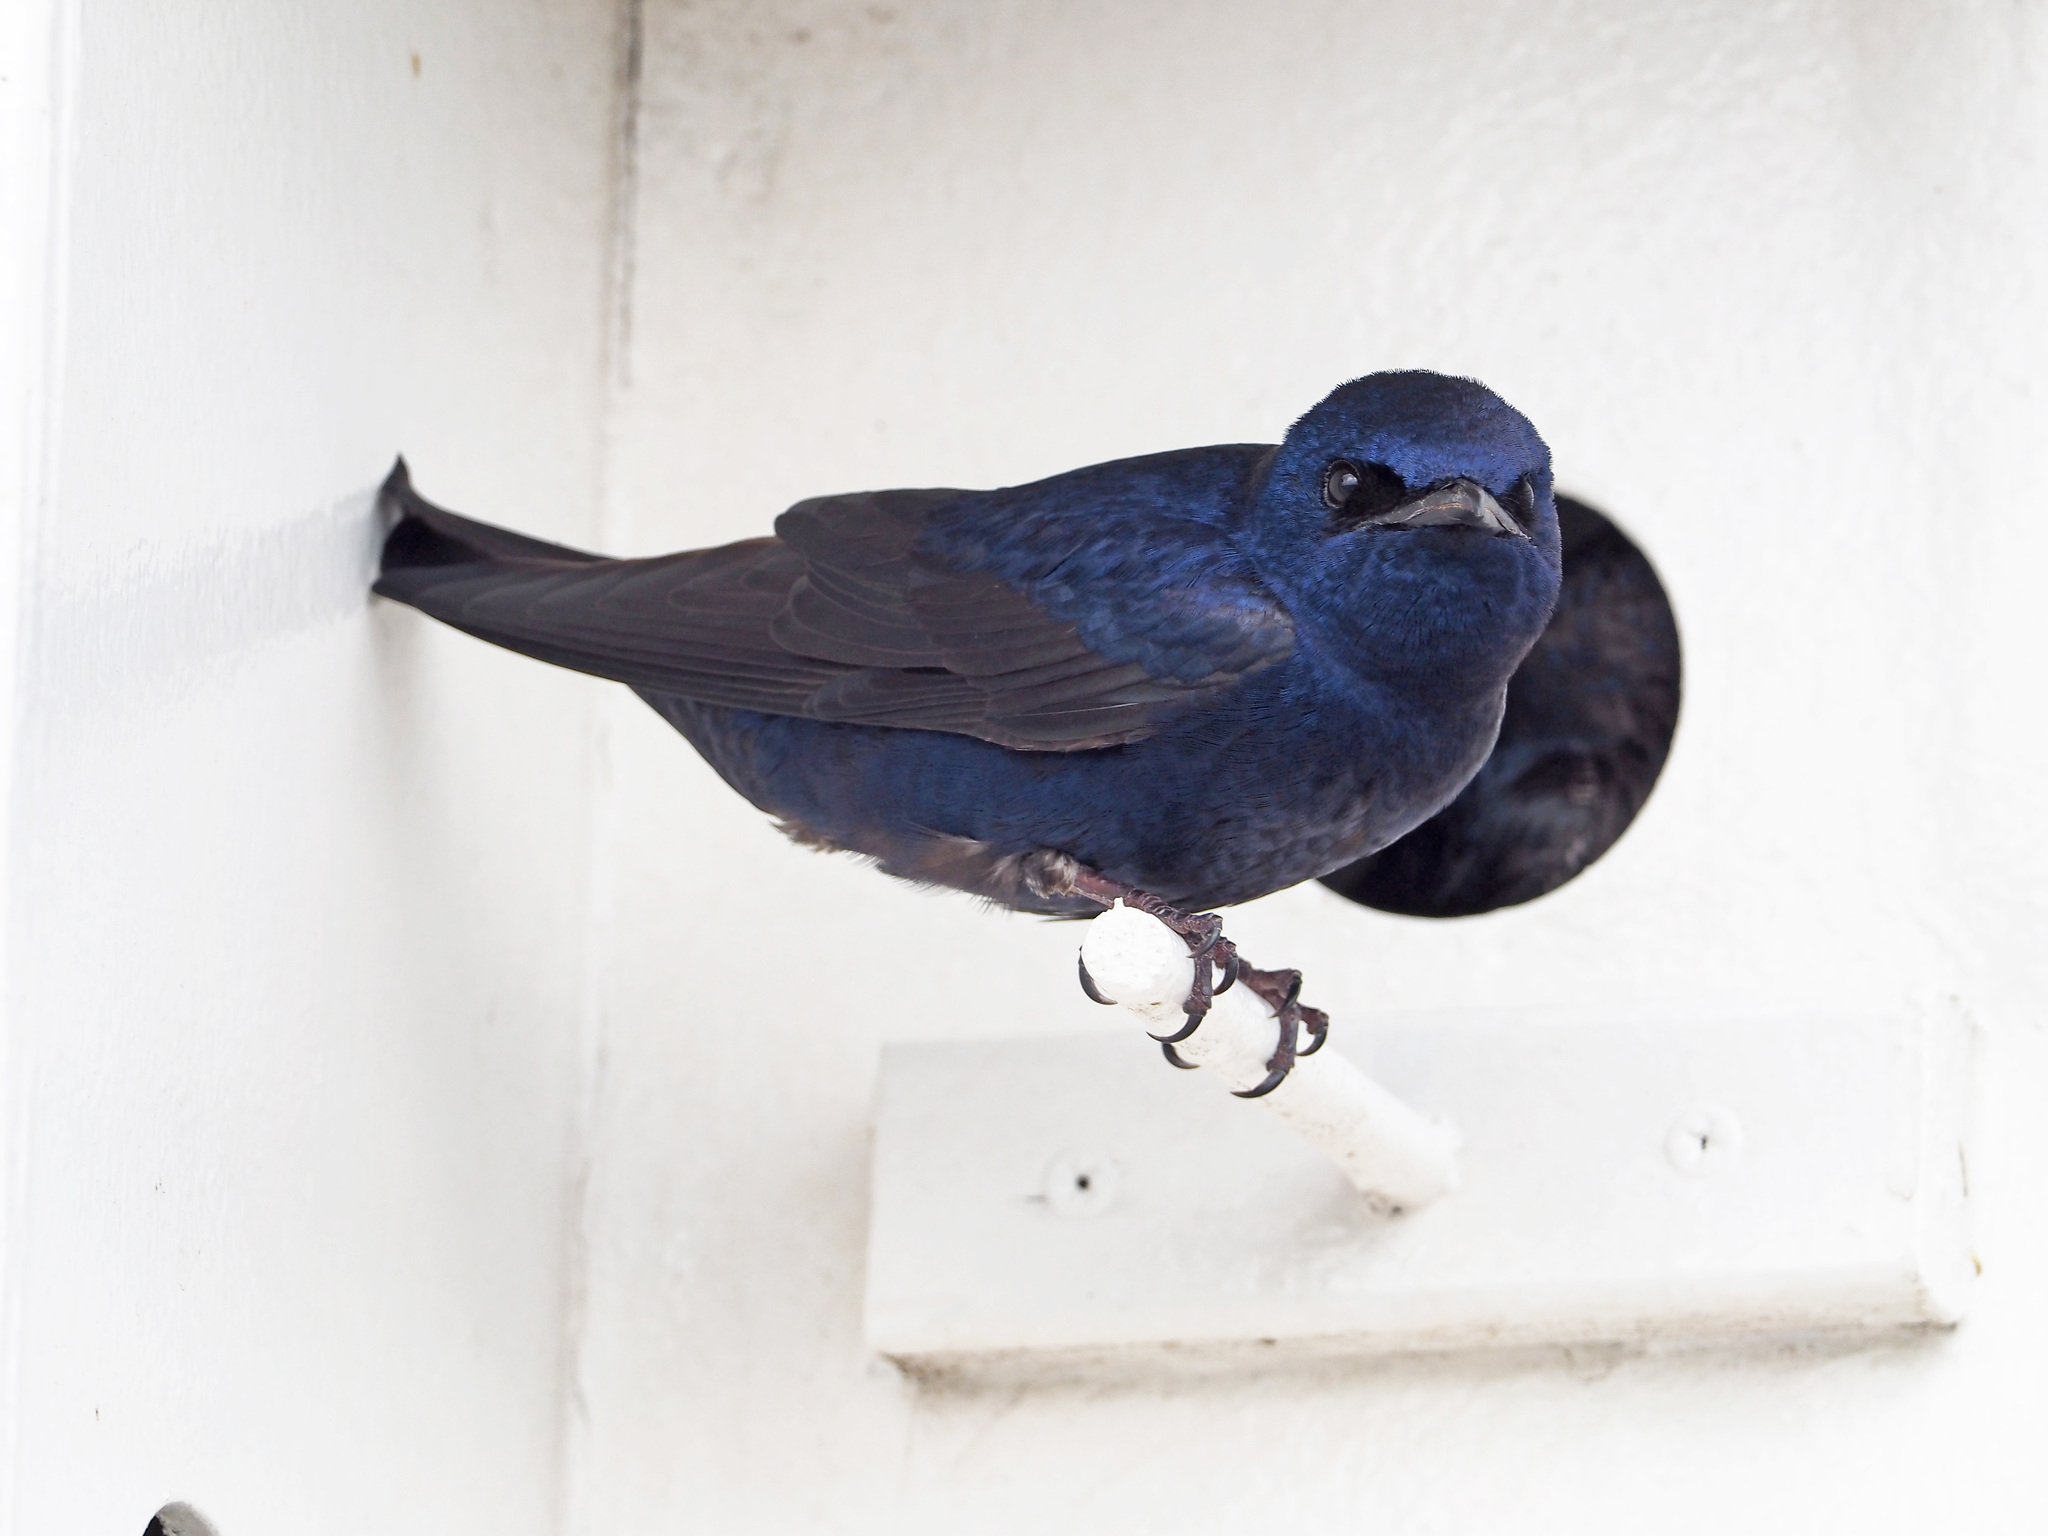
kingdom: Animalia
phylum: Chordata
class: Aves
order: Passeriformes
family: Hirundinidae
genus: Progne
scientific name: Progne subis
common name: Purple martin
